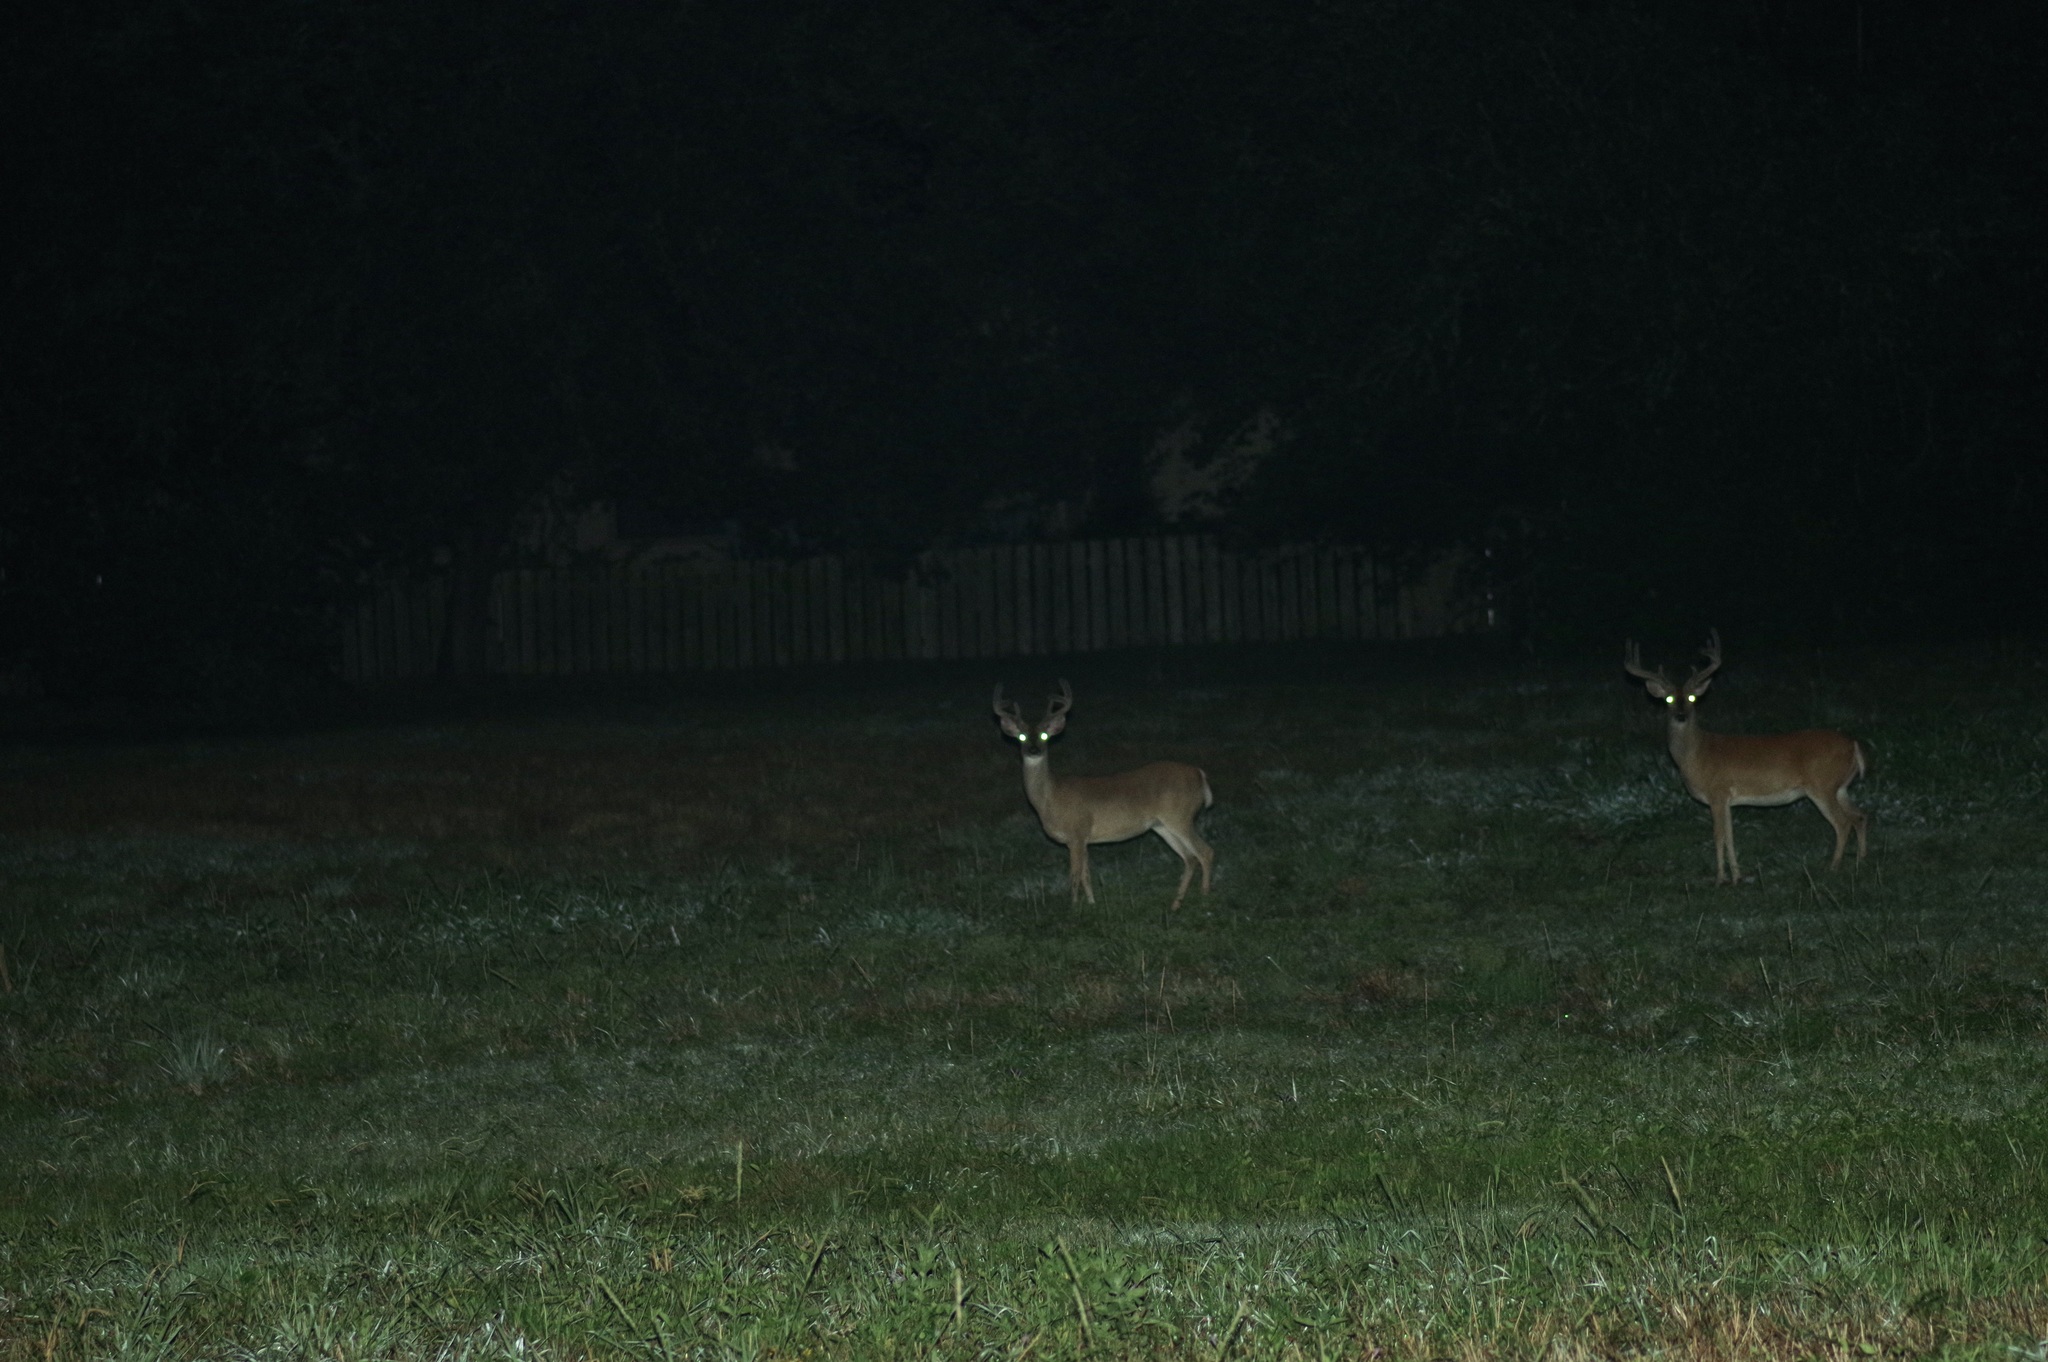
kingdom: Animalia
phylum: Chordata
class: Mammalia
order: Artiodactyla
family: Cervidae
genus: Odocoileus
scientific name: Odocoileus virginianus
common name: White-tailed deer
